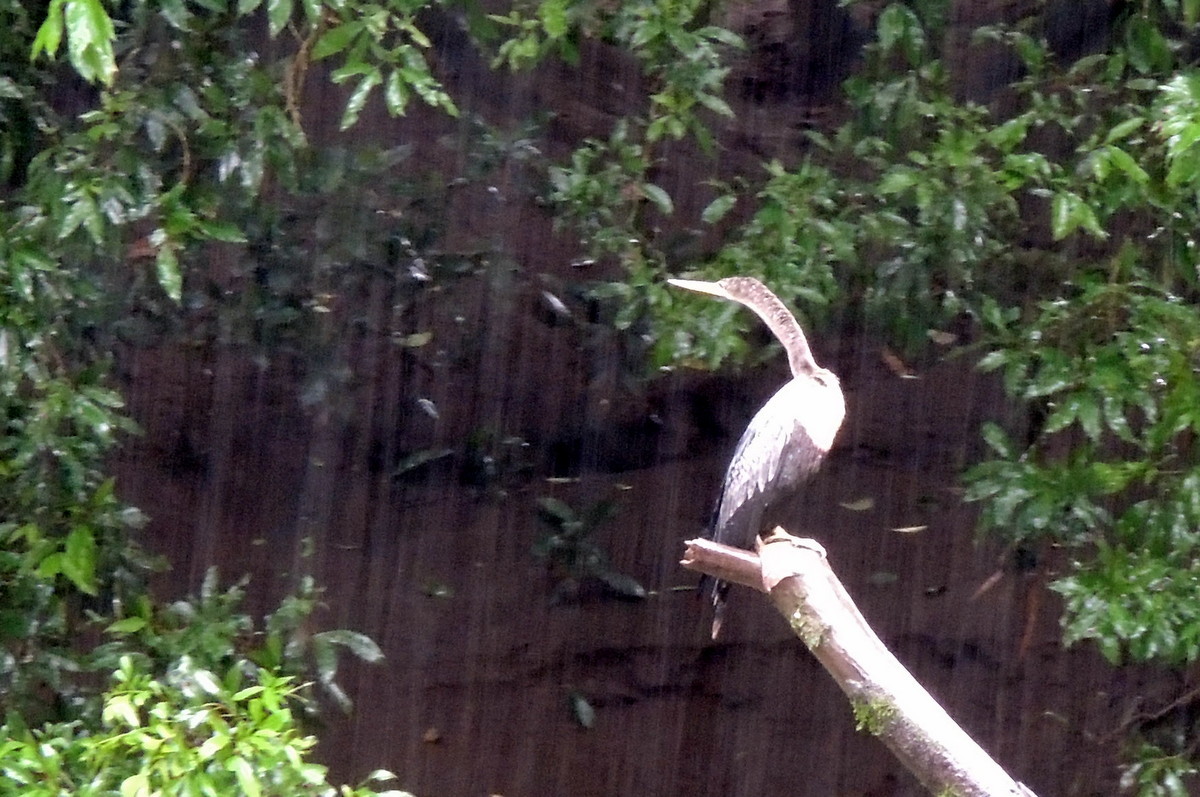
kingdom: Animalia
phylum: Chordata
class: Aves
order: Suliformes
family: Anhingidae
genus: Anhinga
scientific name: Anhinga anhinga
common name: Anhinga
